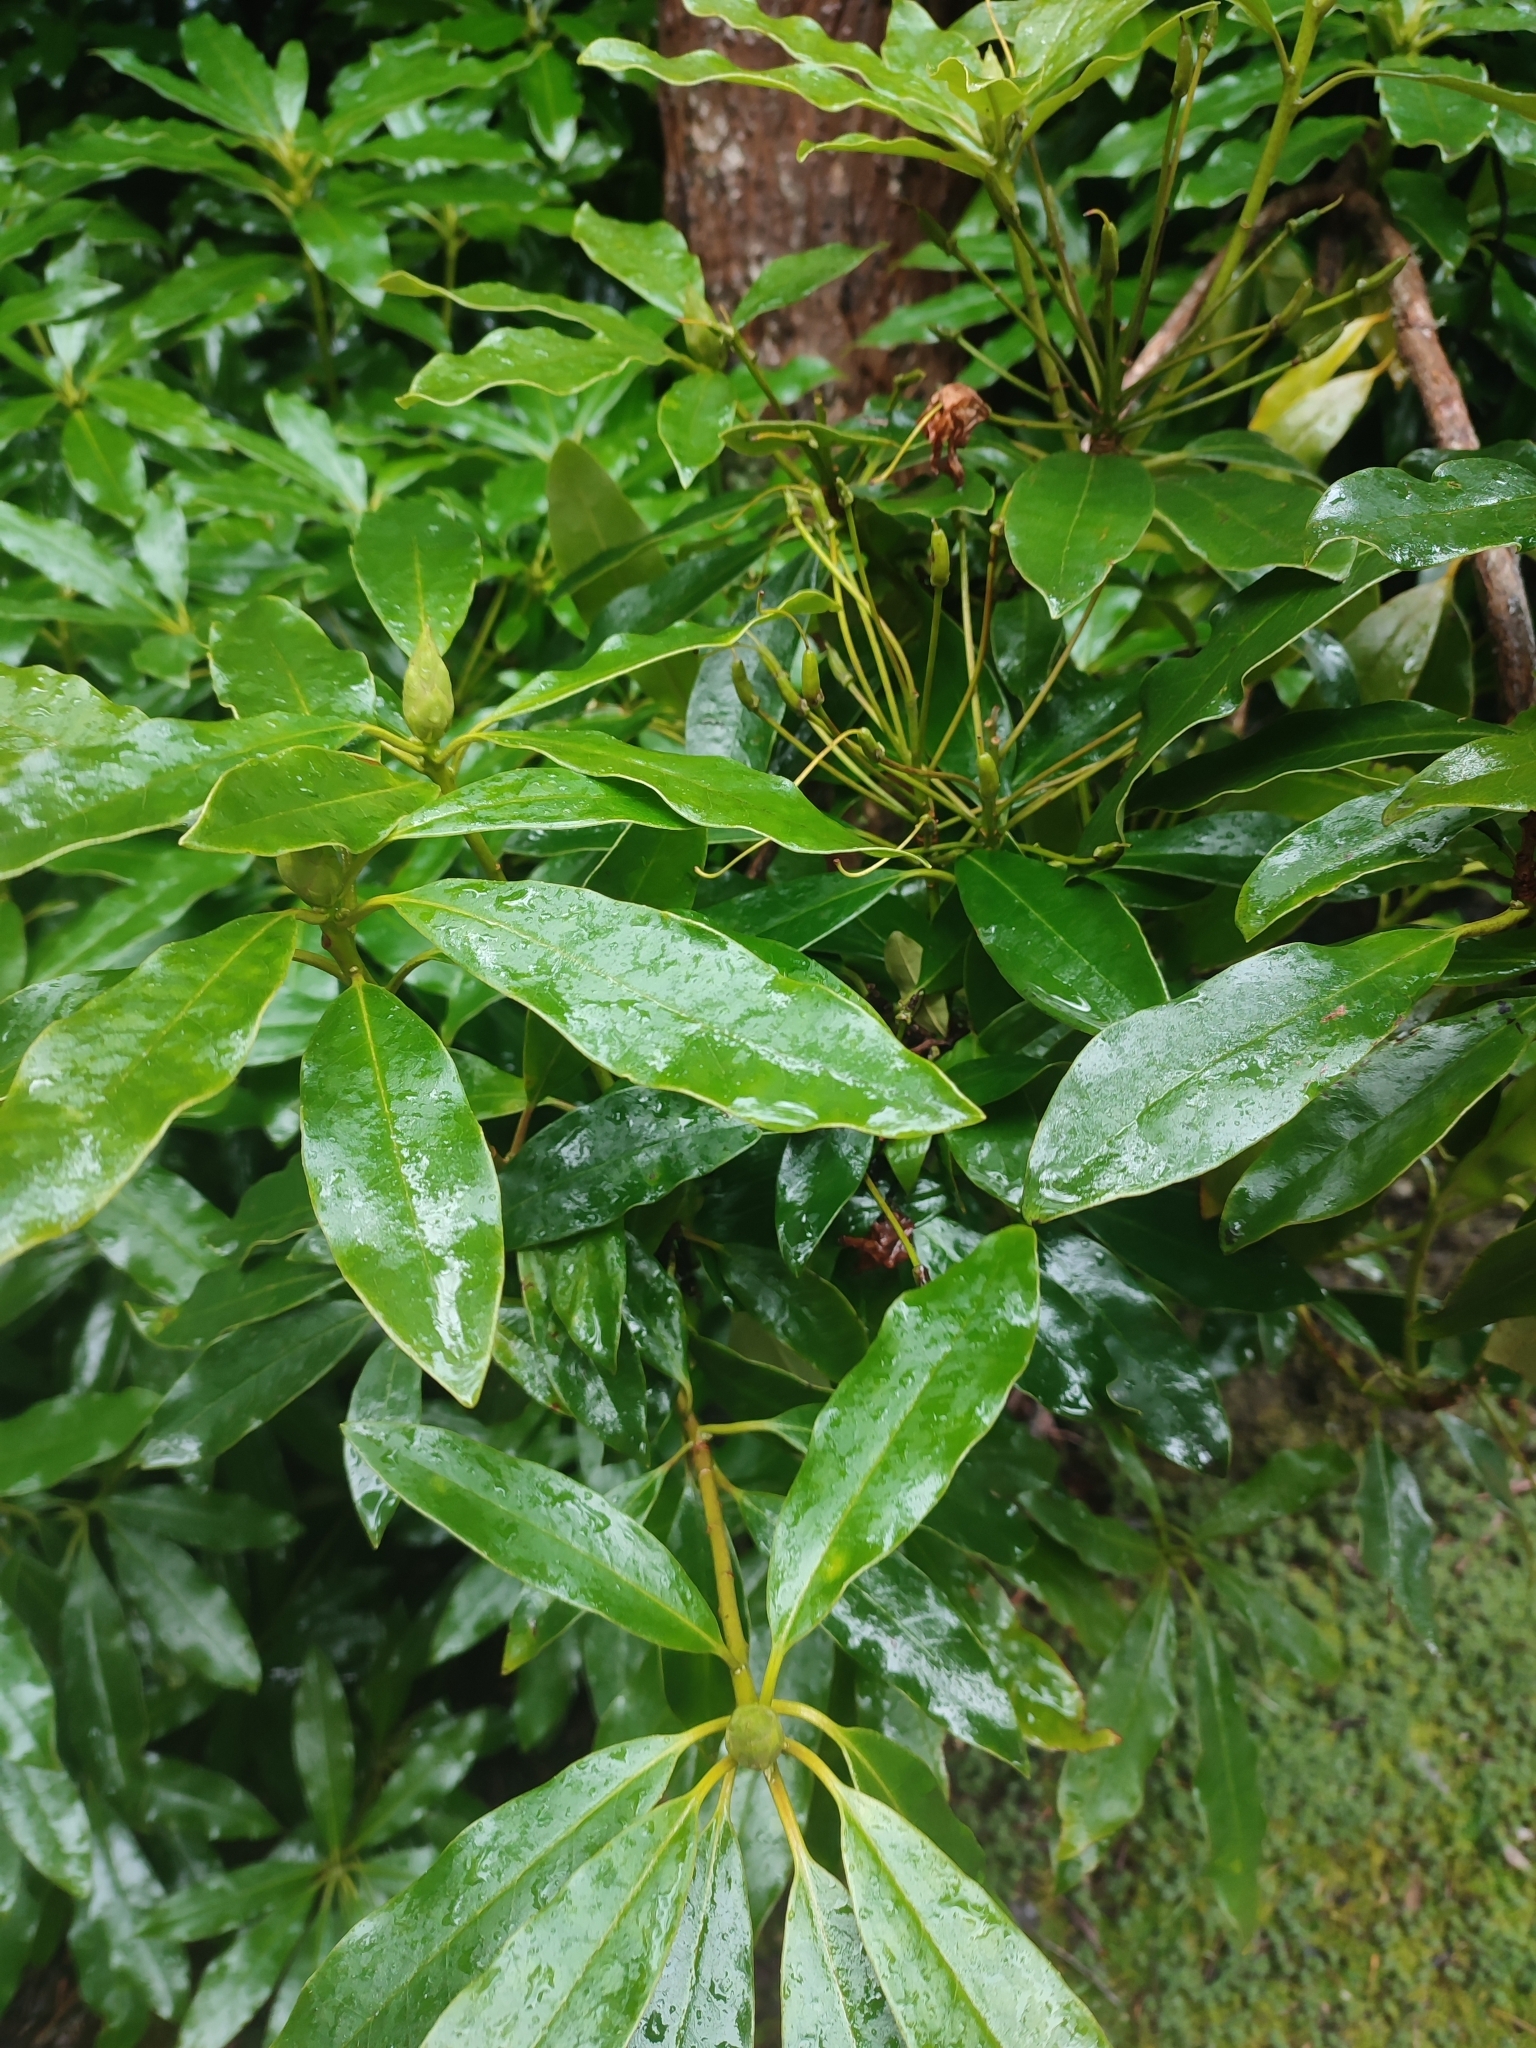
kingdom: Plantae
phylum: Tracheophyta
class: Magnoliopsida
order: Ericales
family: Ericaceae
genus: Rhododendron
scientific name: Rhododendron ponticum
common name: Rhododendron
